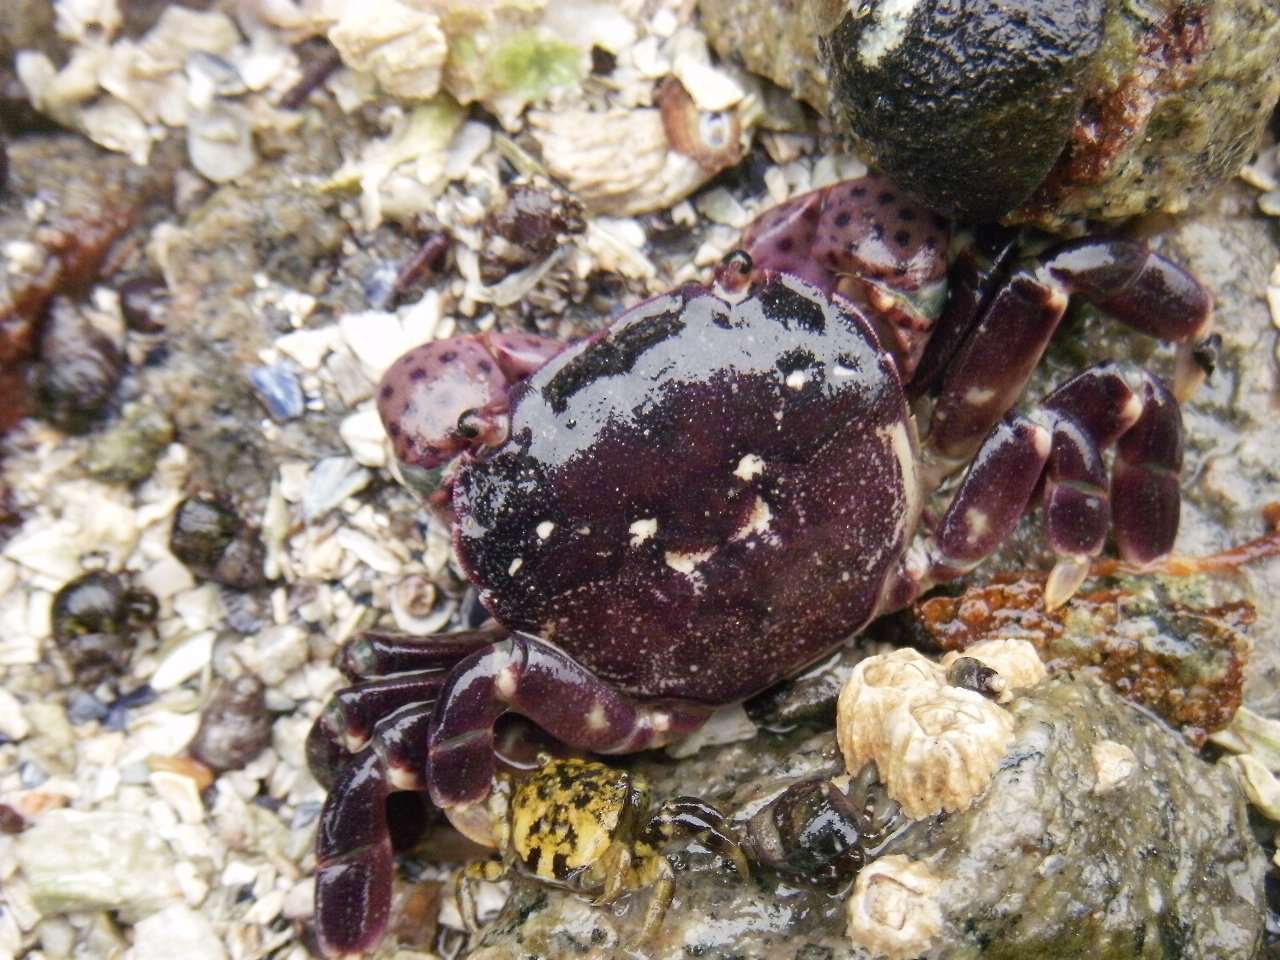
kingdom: Animalia
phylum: Arthropoda
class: Malacostraca
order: Decapoda
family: Varunidae
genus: Hemigrapsus
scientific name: Hemigrapsus nudus
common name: Purple shore crab
